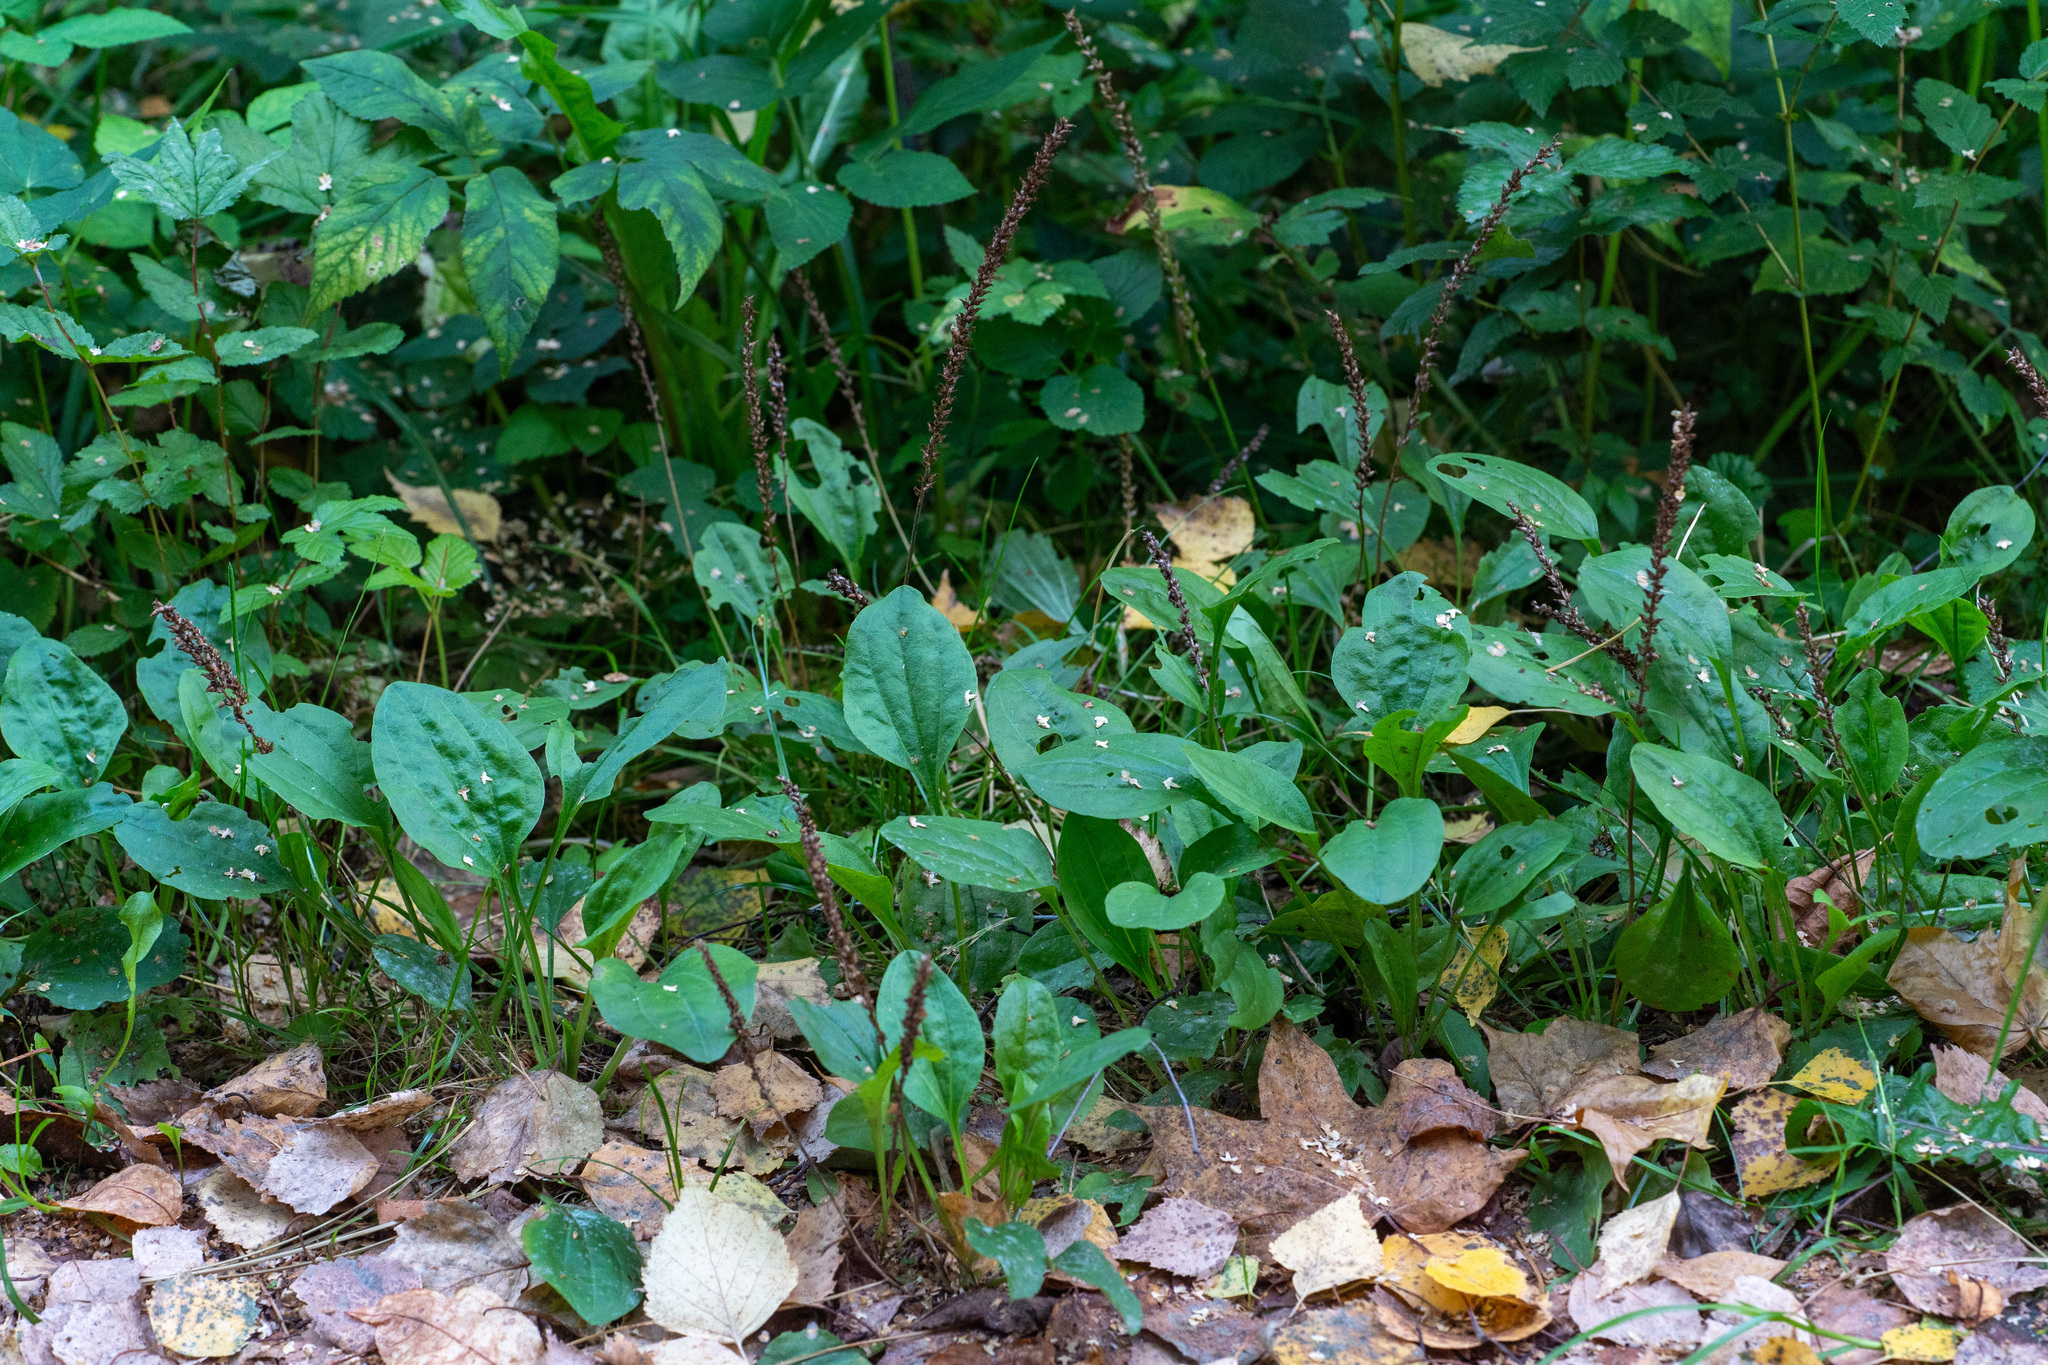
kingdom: Plantae
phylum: Tracheophyta
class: Magnoliopsida
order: Lamiales
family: Plantaginaceae
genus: Plantago
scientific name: Plantago major
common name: Common plantain
